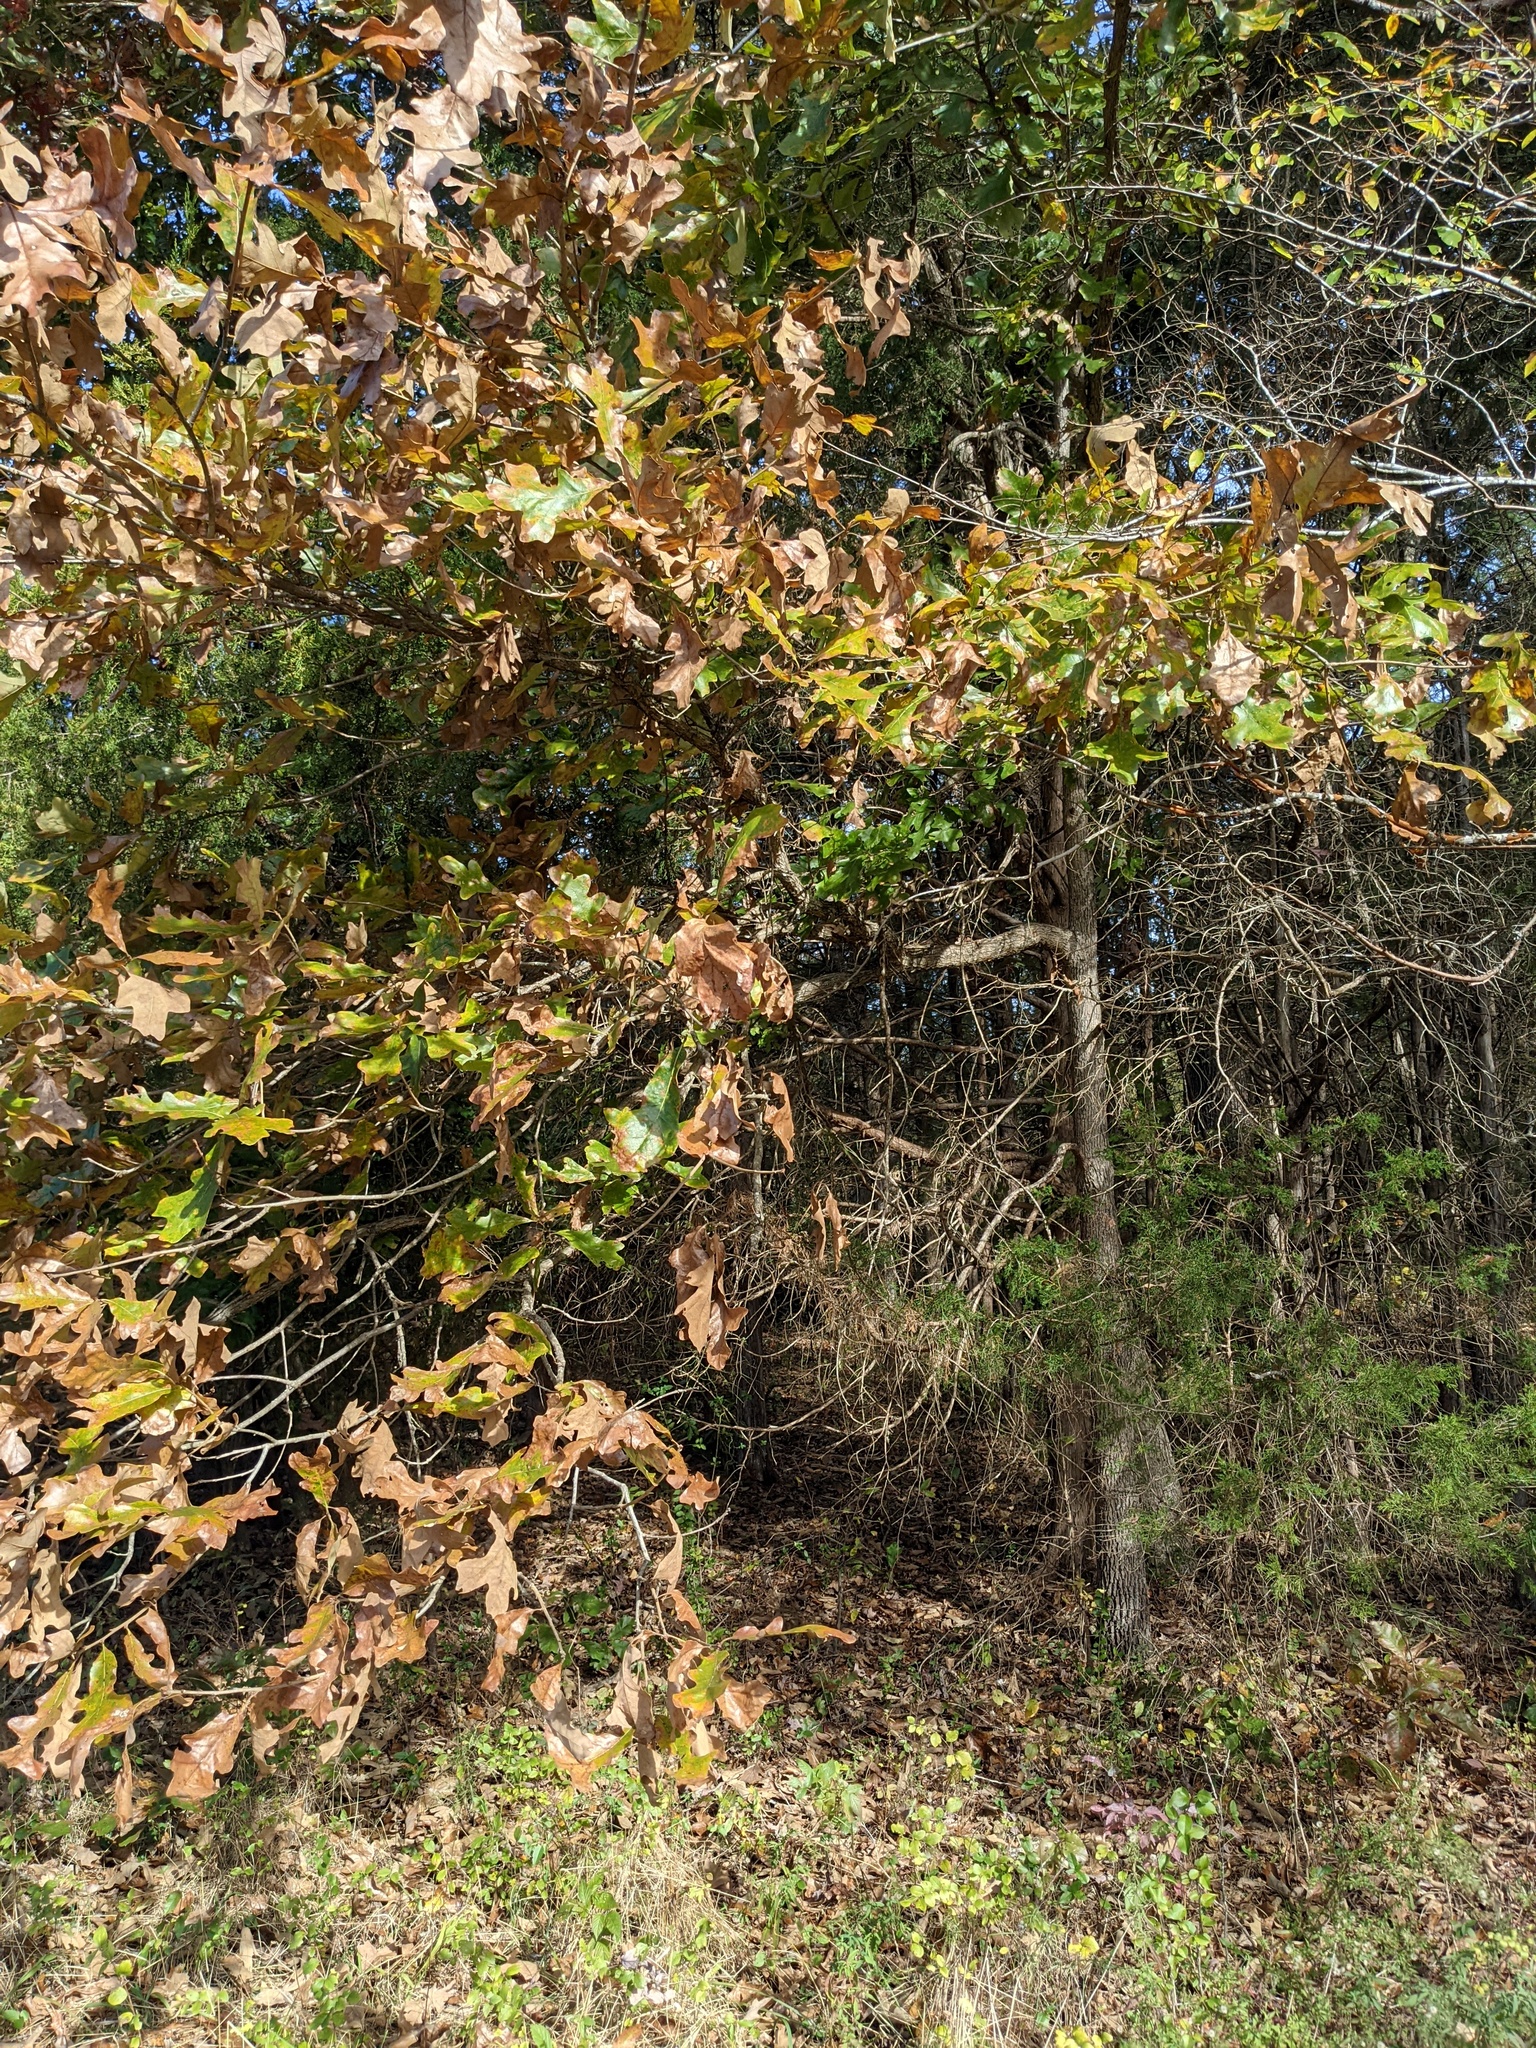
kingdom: Plantae
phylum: Tracheophyta
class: Magnoliopsida
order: Fagales
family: Fagaceae
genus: Quercus
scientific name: Quercus stellata
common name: Post oak
